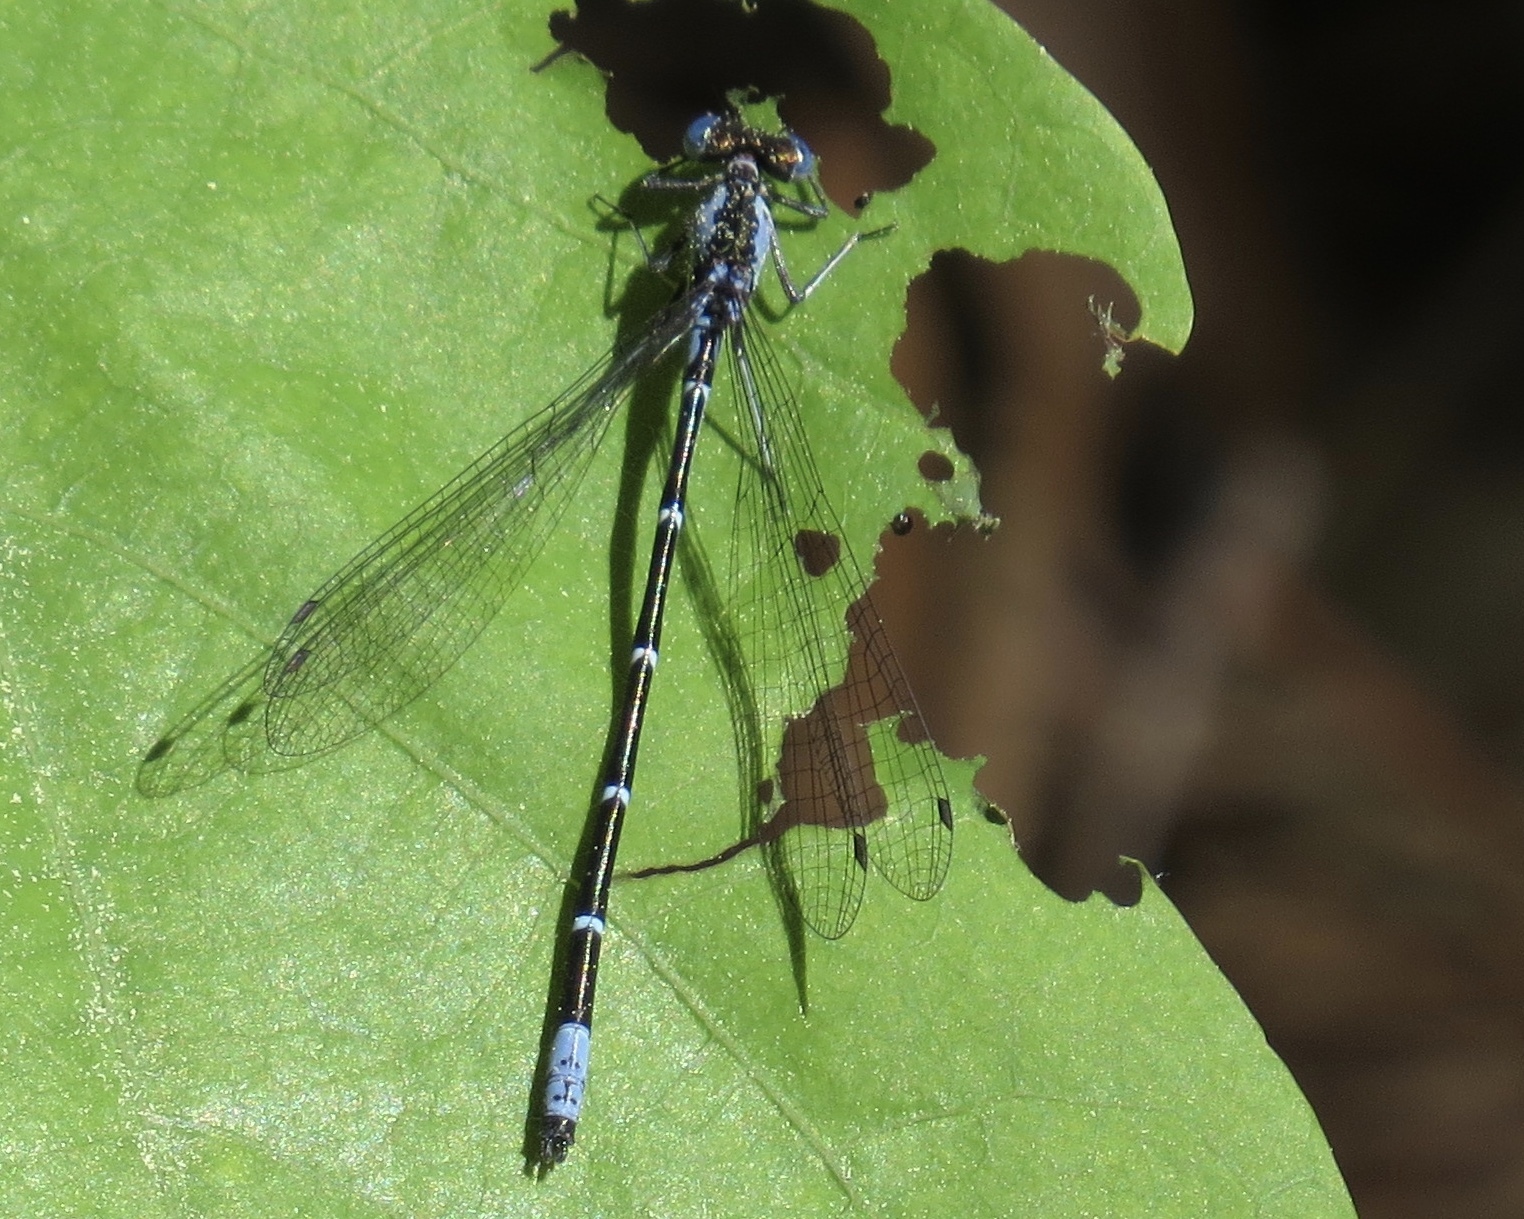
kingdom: Animalia
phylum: Arthropoda
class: Insecta
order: Odonata
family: Coenagrionidae
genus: Chromagrion
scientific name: Chromagrion conditum
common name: Aurora damsel
